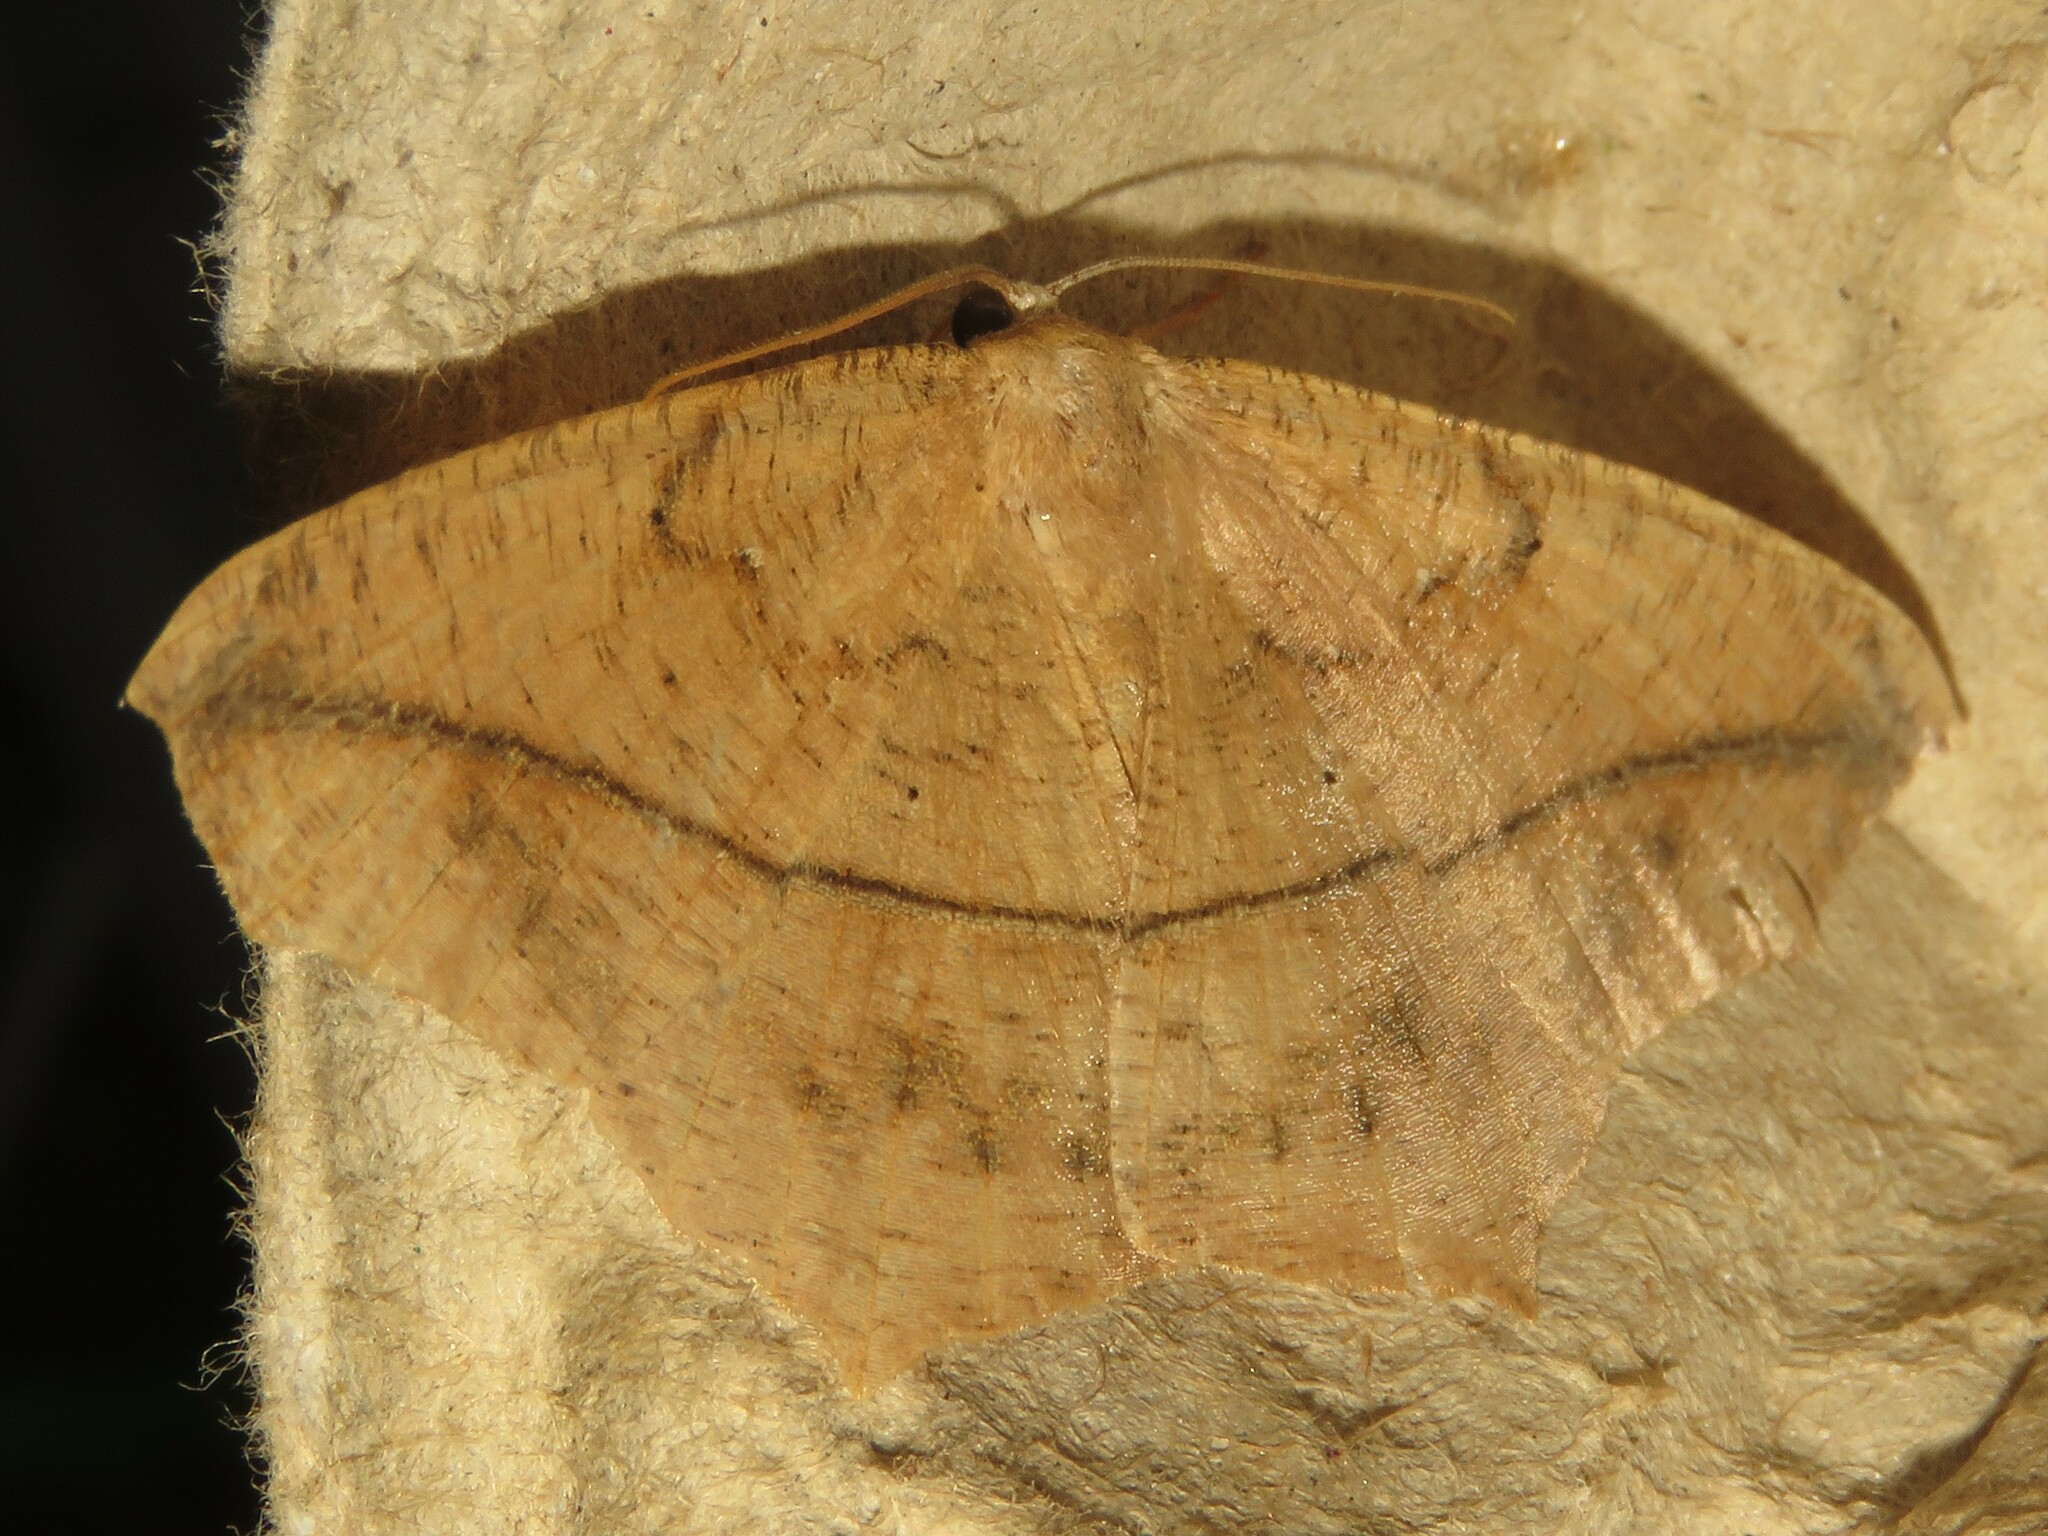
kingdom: Animalia
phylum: Arthropoda
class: Insecta
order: Lepidoptera
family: Geometridae
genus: Prochoerodes
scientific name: Prochoerodes lineola
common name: Large maple spanworm
